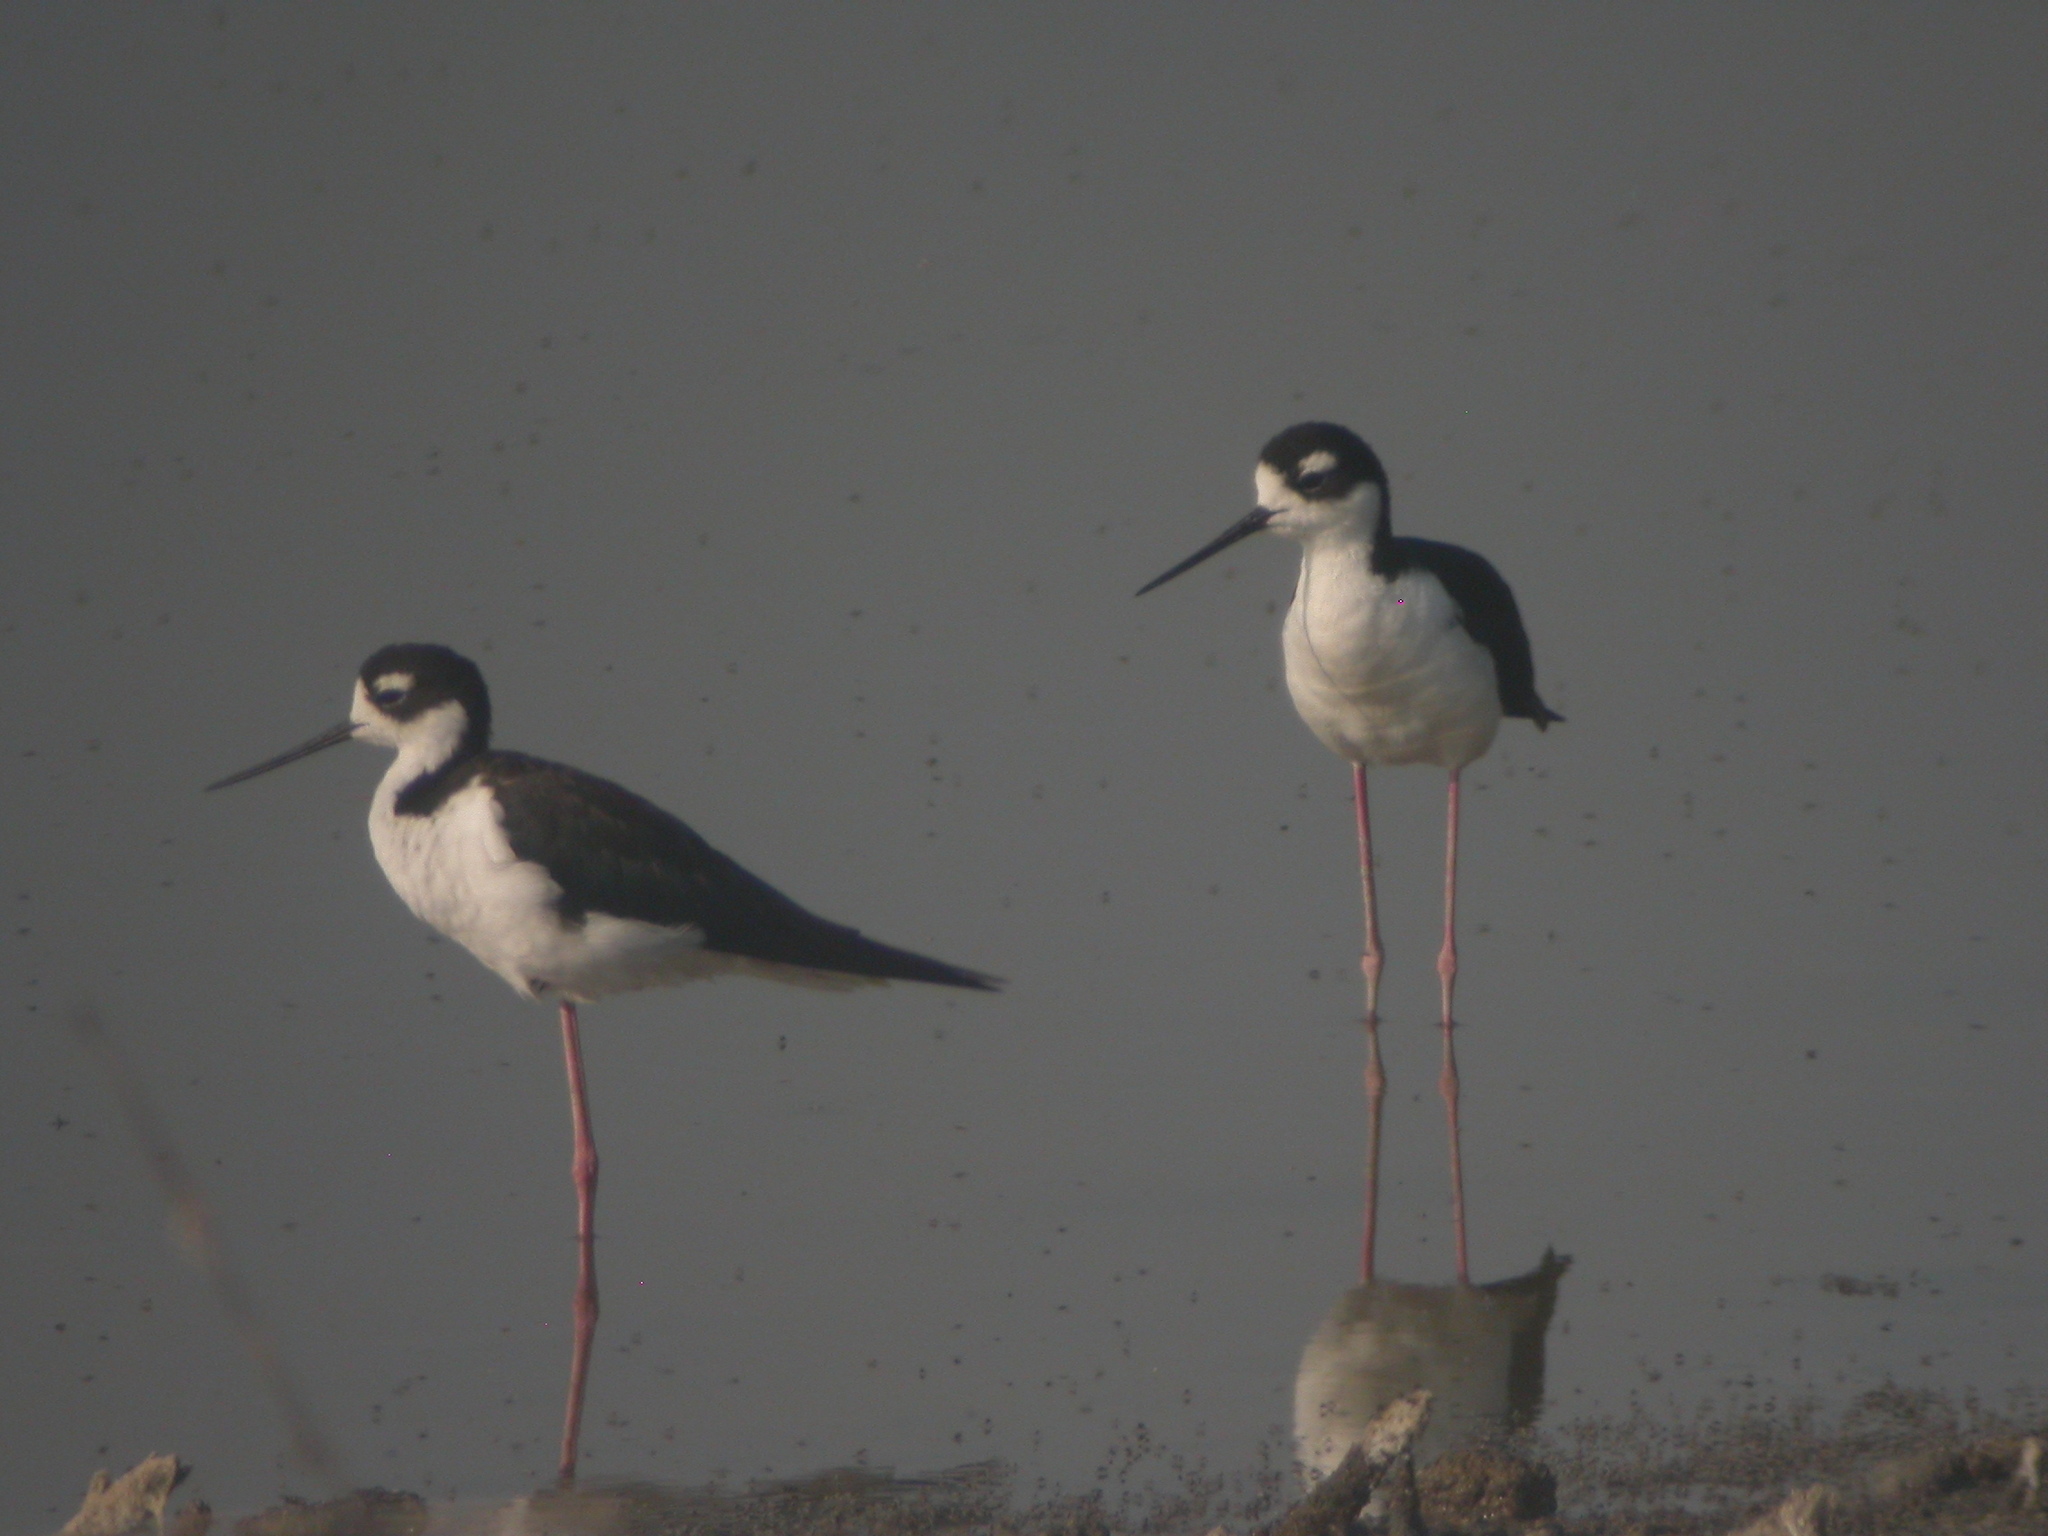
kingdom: Animalia
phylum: Chordata
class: Aves
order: Charadriiformes
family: Recurvirostridae
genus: Himantopus
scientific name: Himantopus mexicanus
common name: Black-necked stilt
